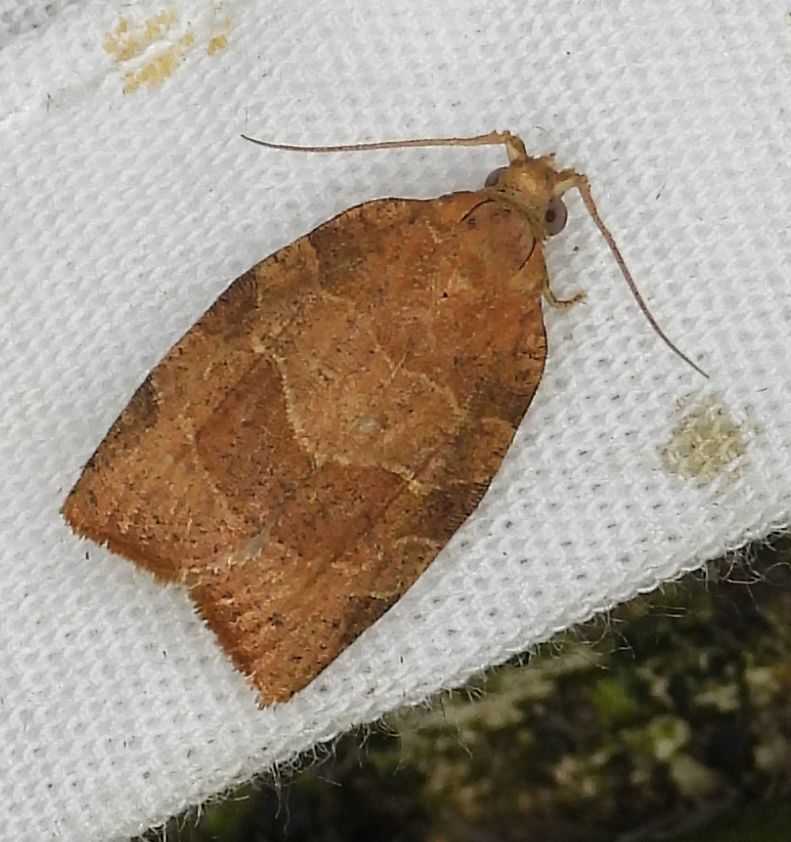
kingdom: Animalia
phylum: Arthropoda
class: Insecta
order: Lepidoptera
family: Tortricidae
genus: Pandemis
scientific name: Pandemis limitata
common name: Three-lined leafroller moth
